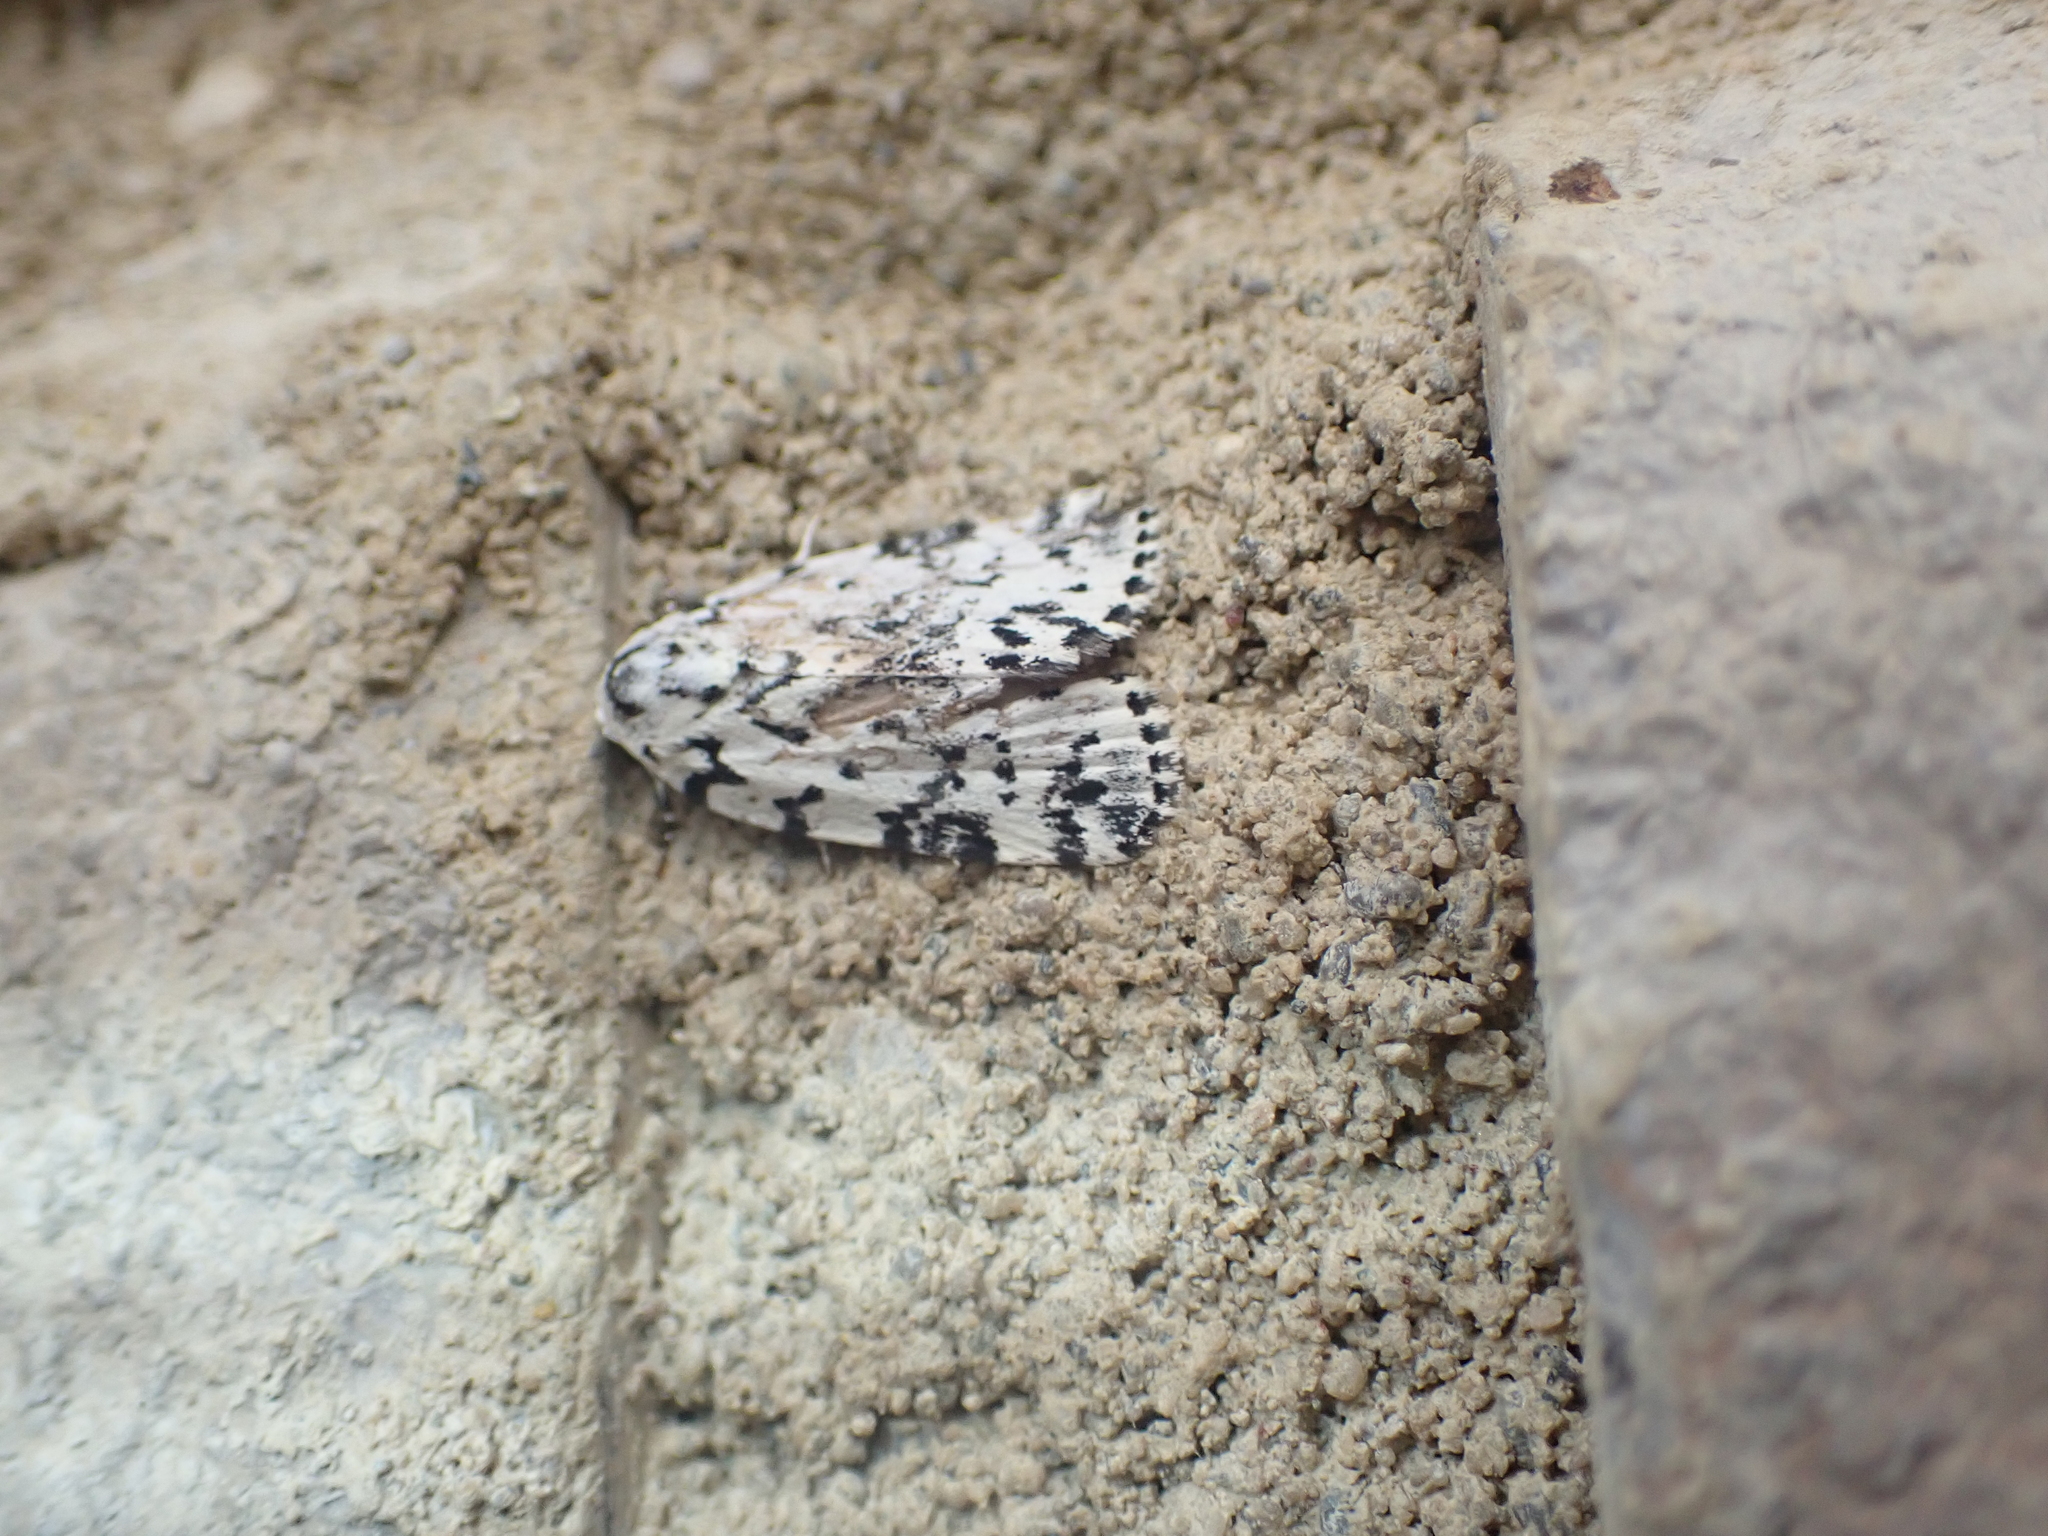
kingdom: Animalia
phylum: Arthropoda
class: Insecta
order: Lepidoptera
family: Noctuidae
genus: Polygrammate
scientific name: Polygrammate hebraeicum
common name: Hebrew moth
